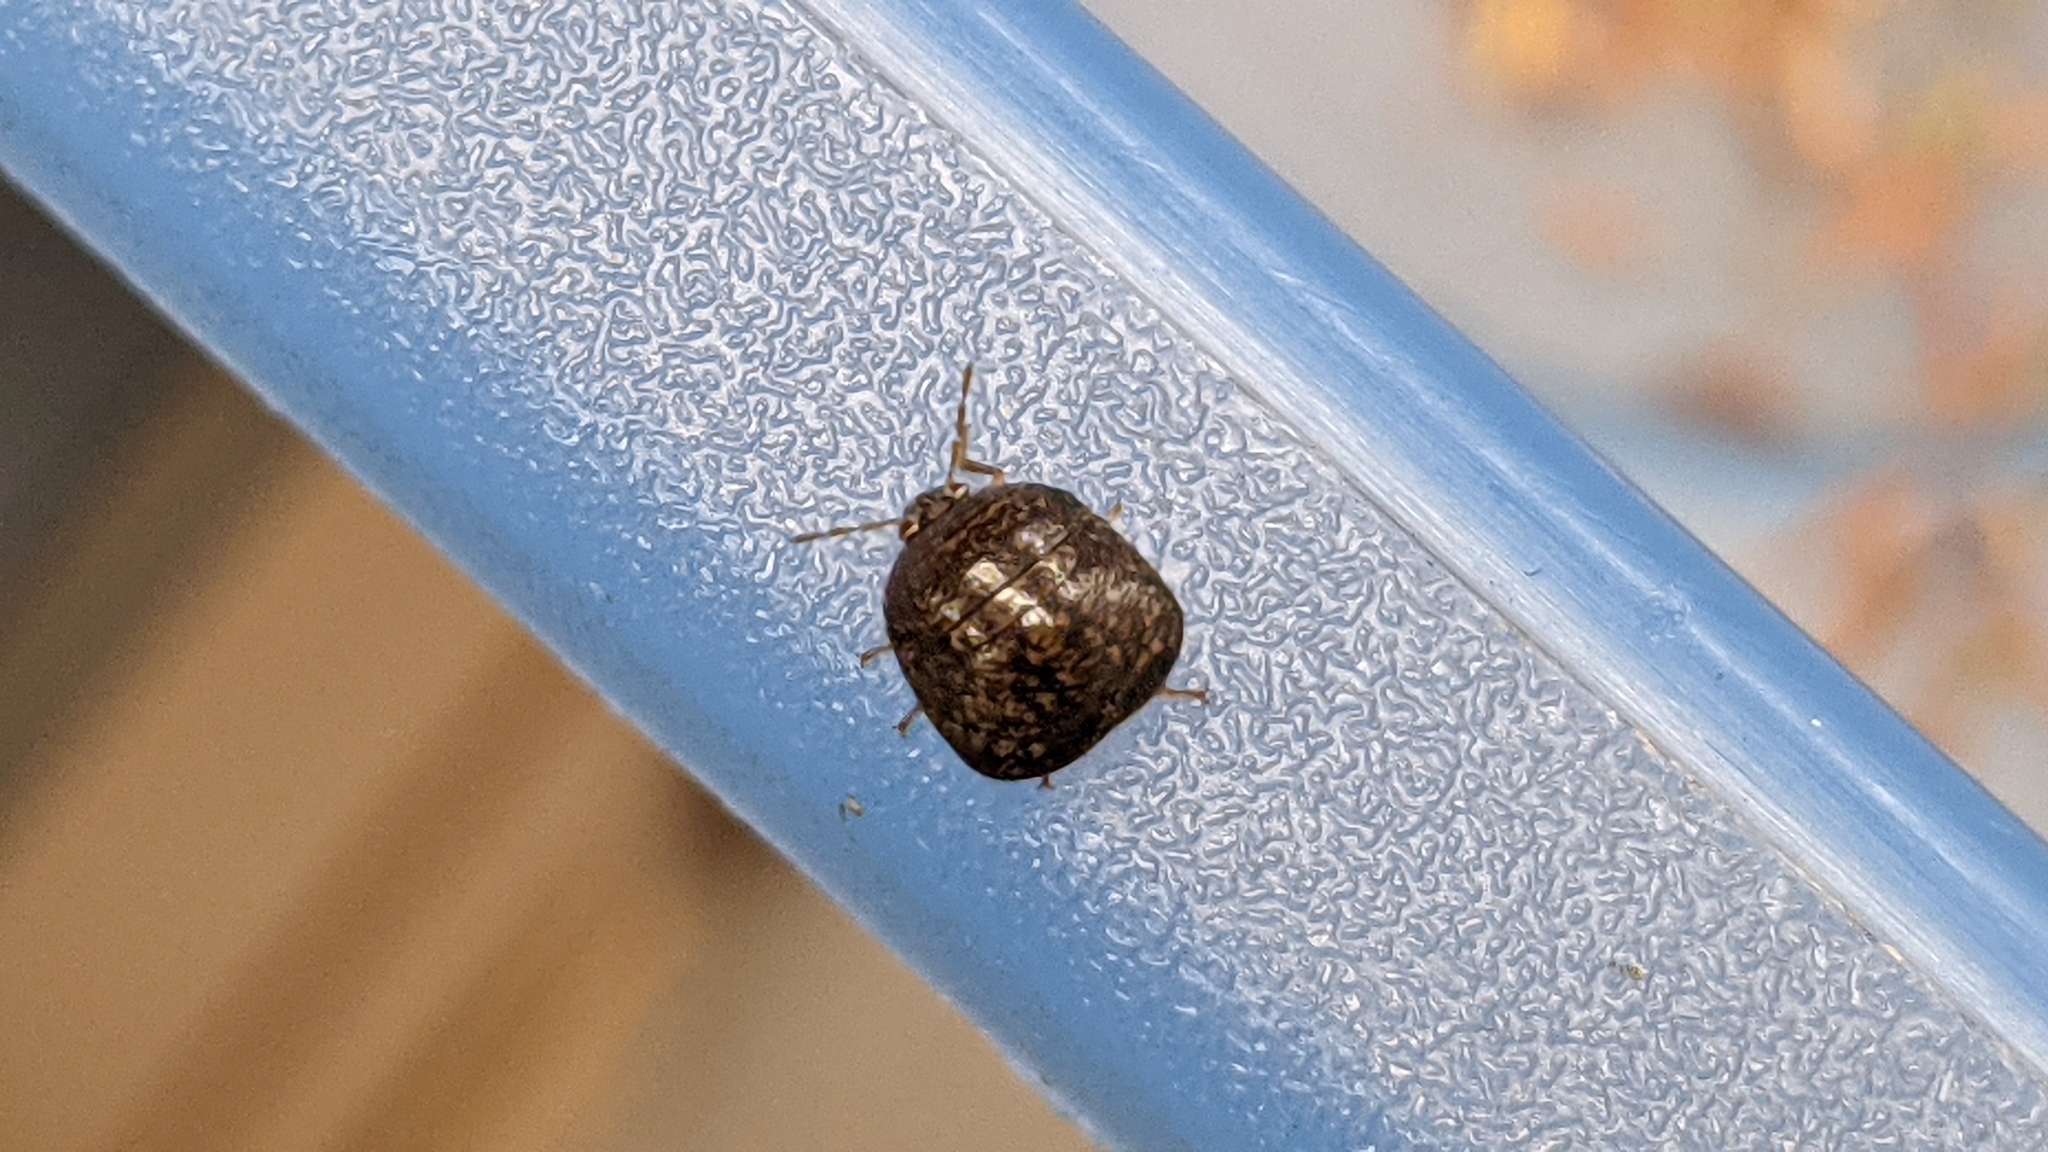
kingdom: Animalia
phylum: Arthropoda
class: Insecta
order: Hemiptera
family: Plataspidae
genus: Megacopta
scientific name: Megacopta cribraria
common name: Bean plataspid
